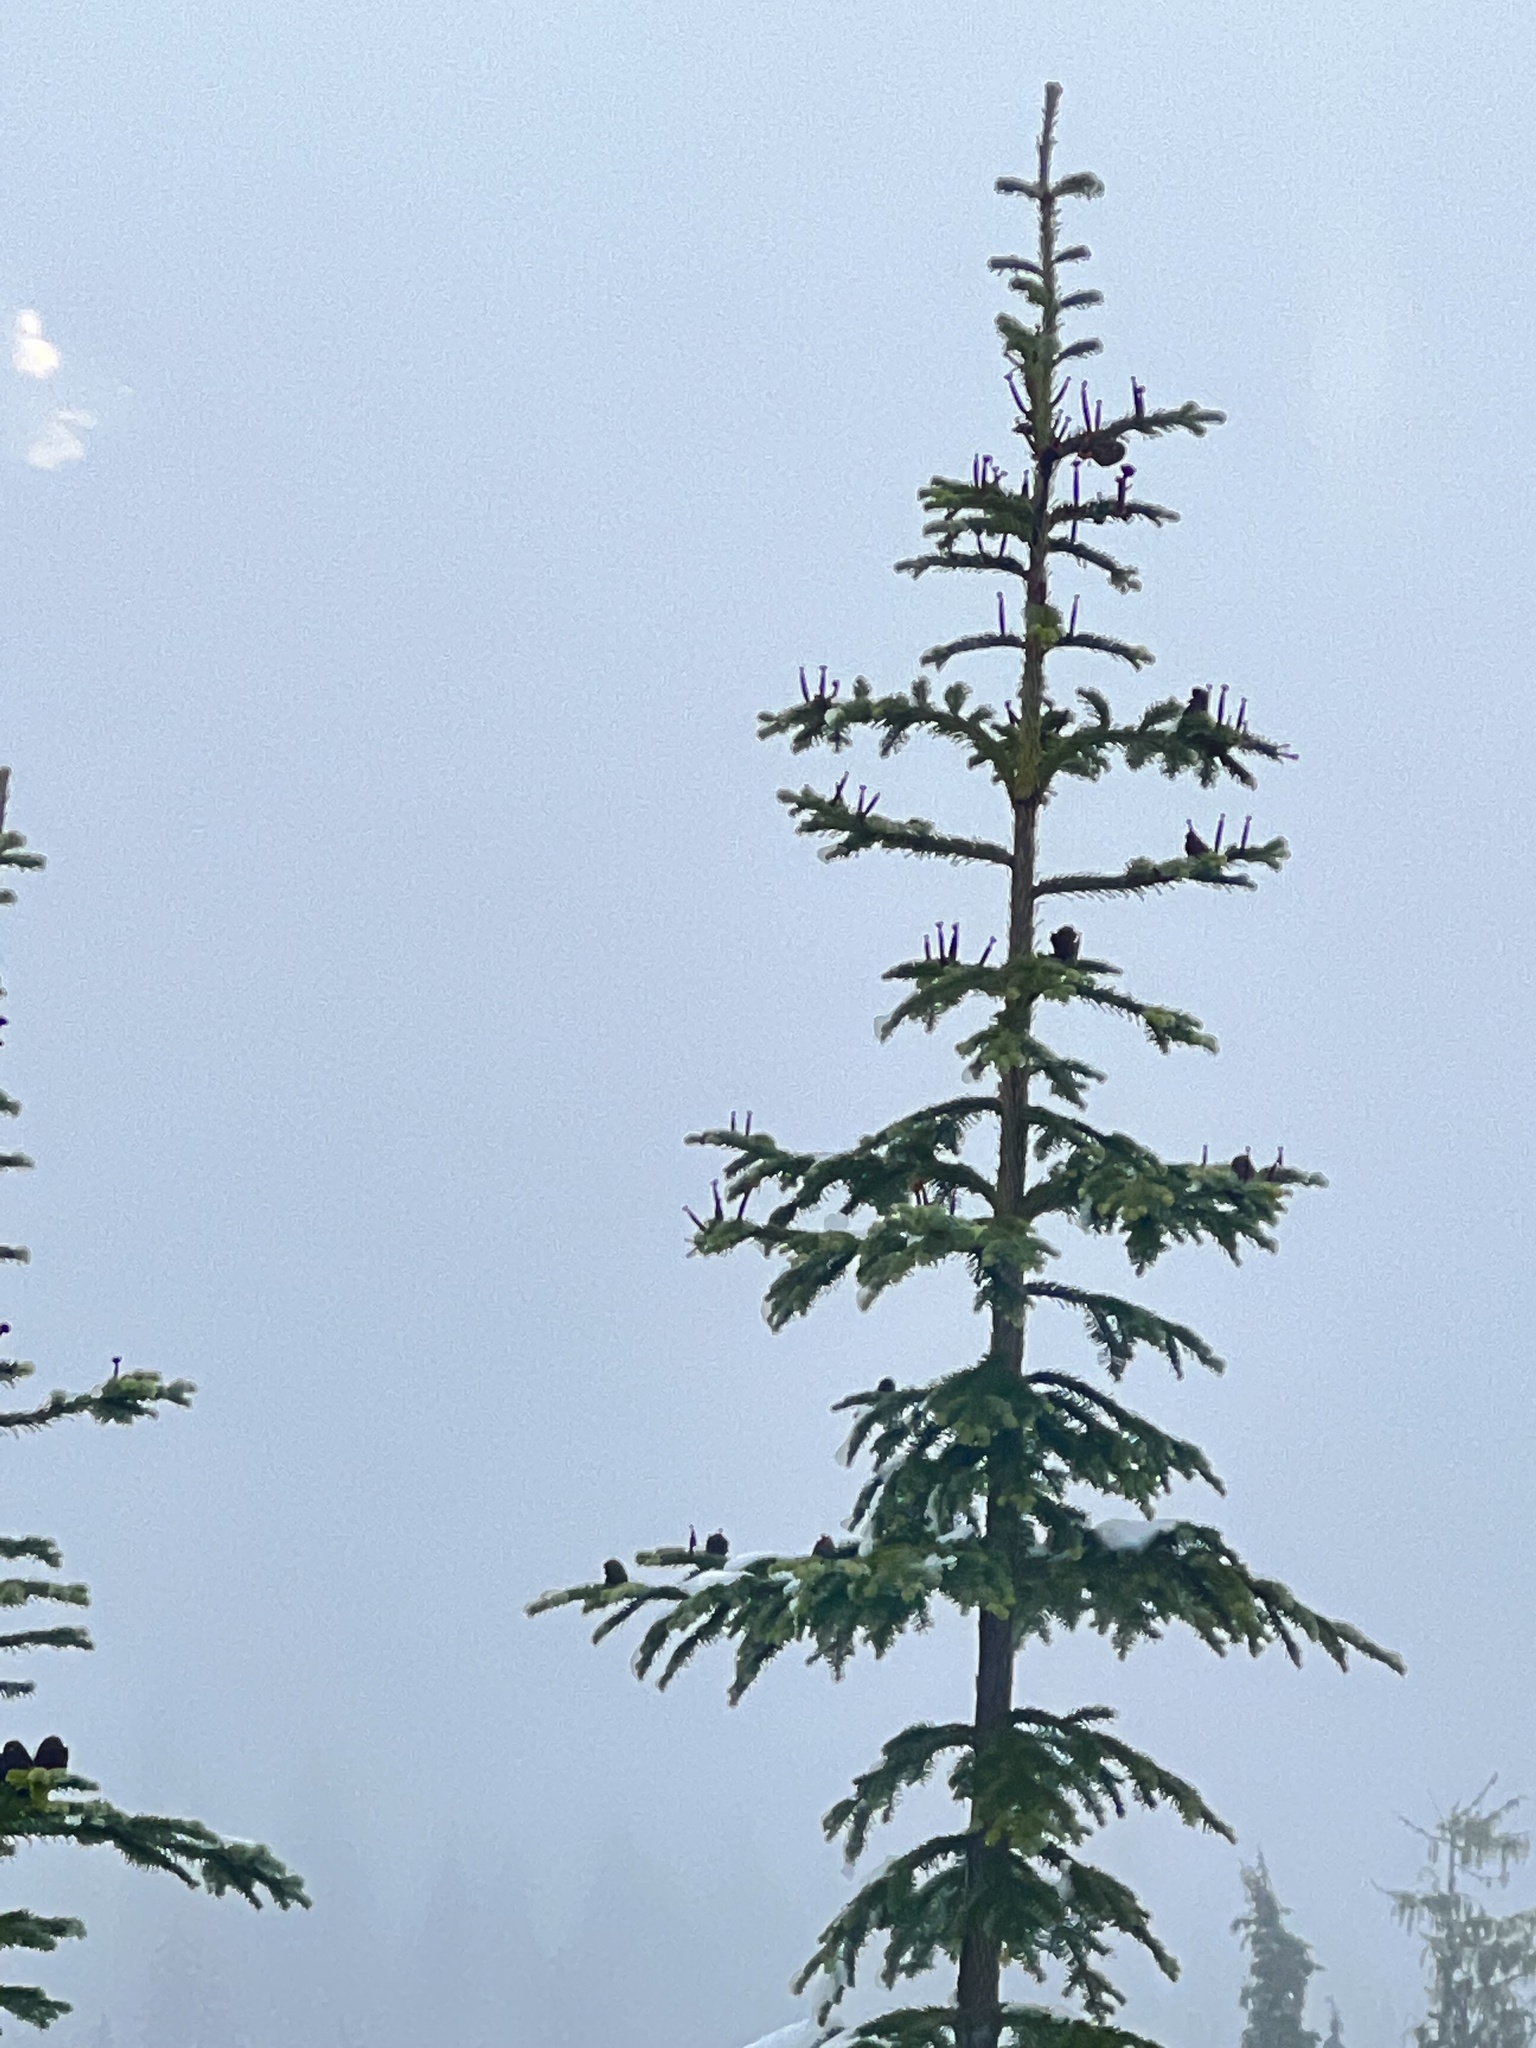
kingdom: Plantae
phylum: Tracheophyta
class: Pinopsida
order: Pinales
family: Pinaceae
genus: Abies
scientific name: Abies amabilis
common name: Pacific silver fir
